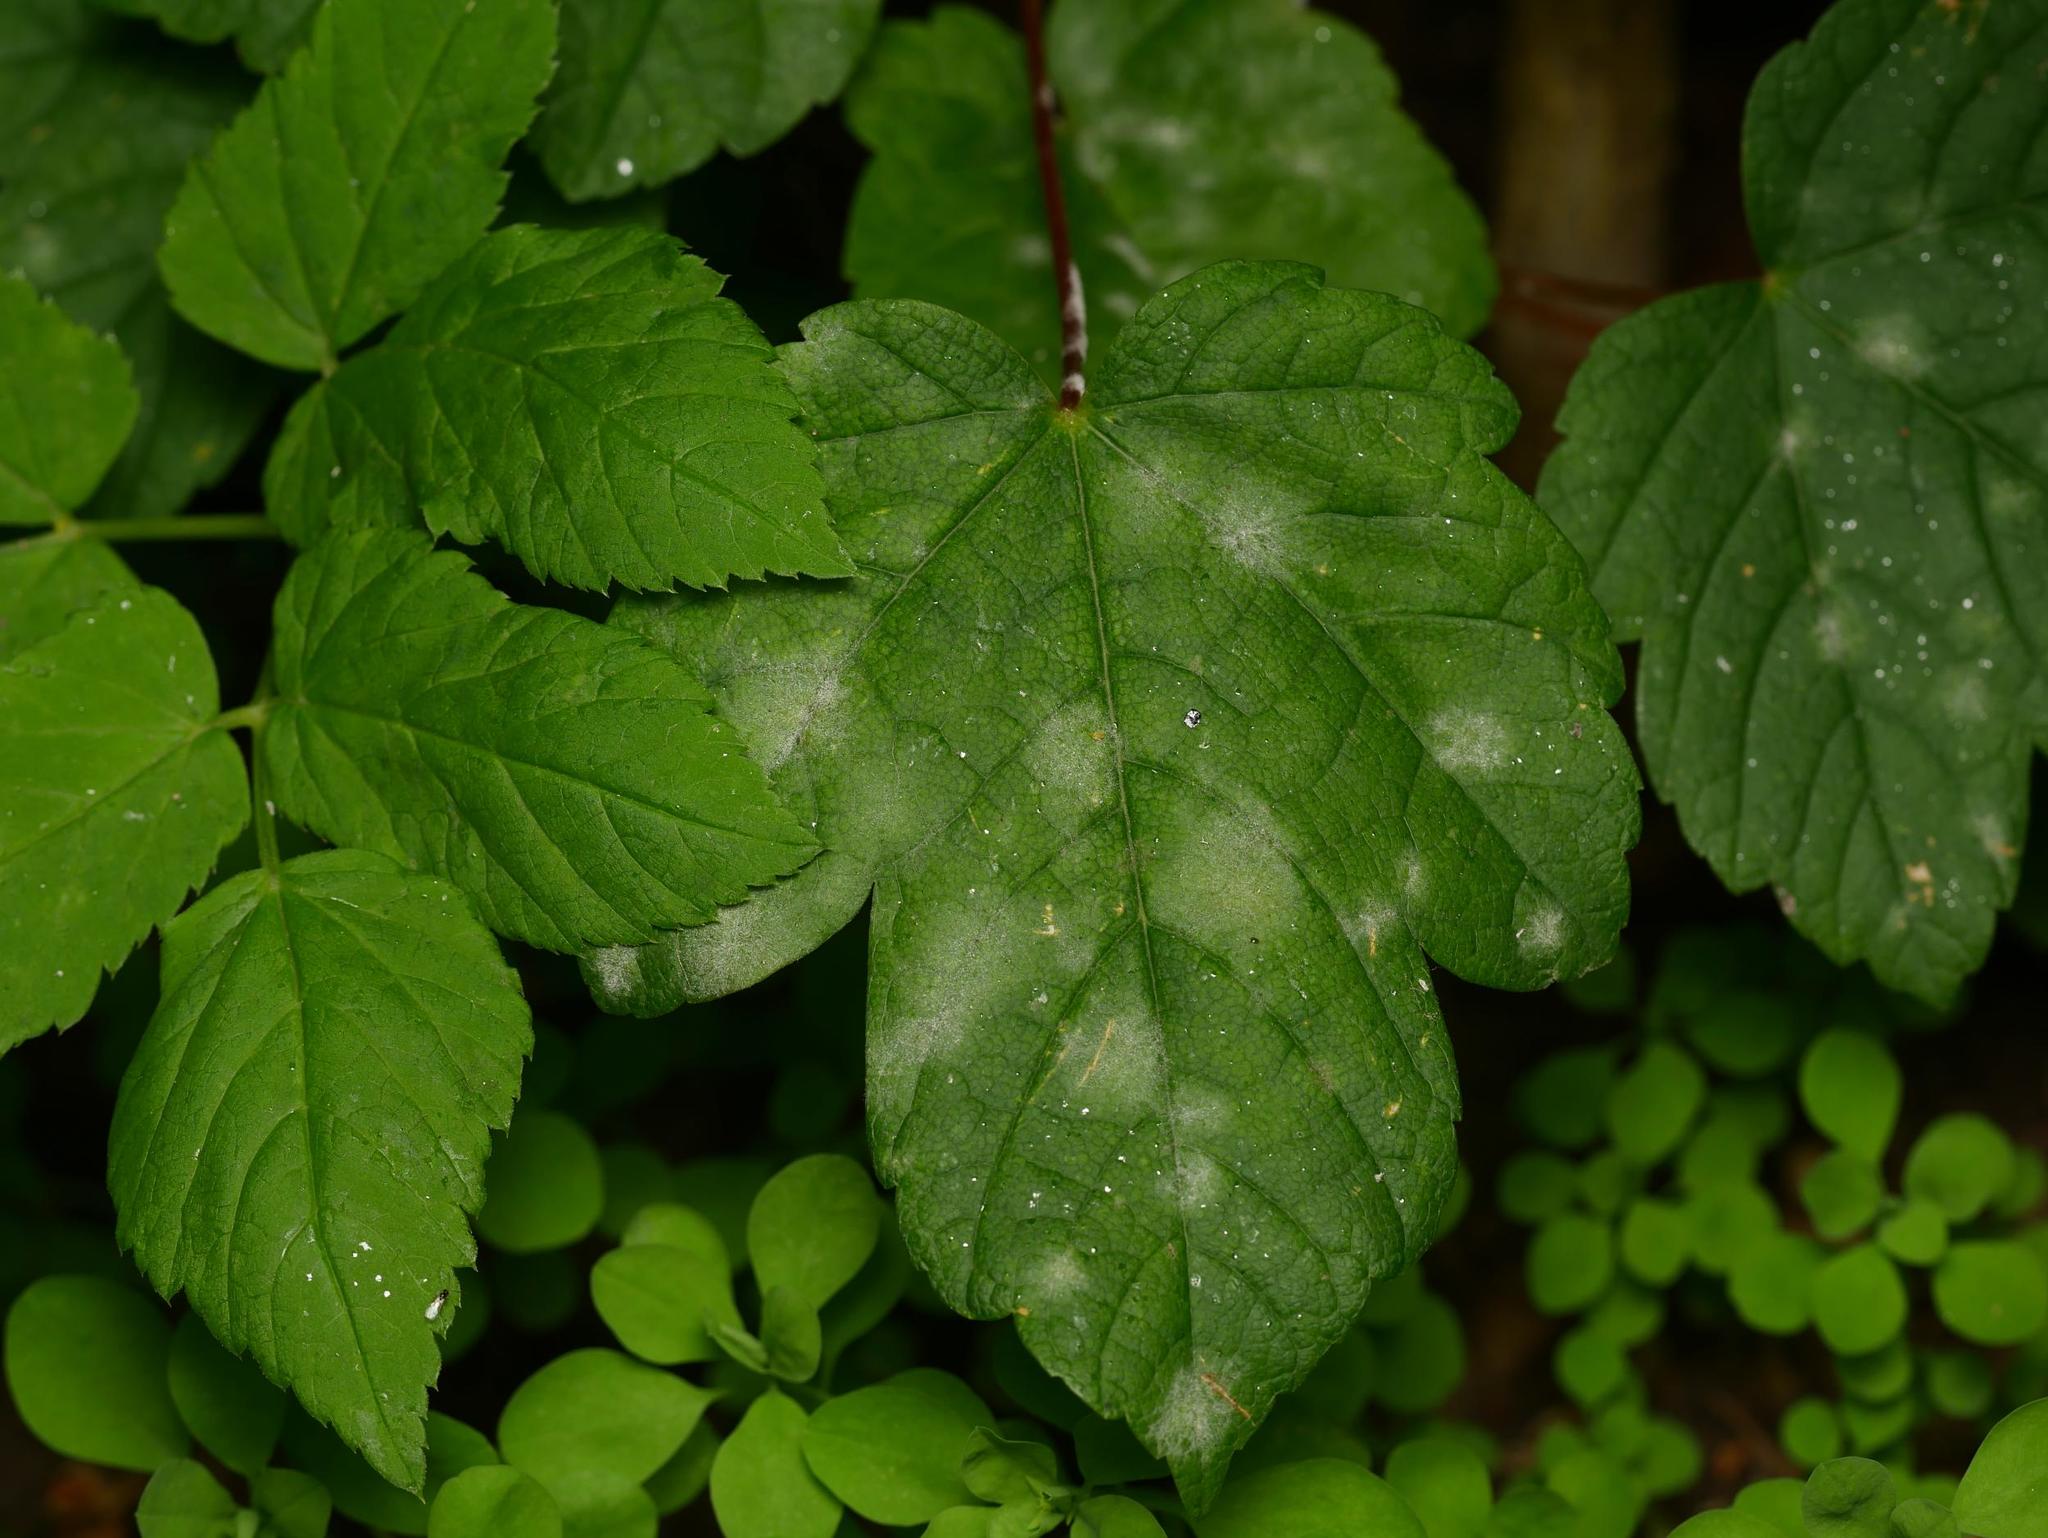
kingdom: Fungi
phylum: Ascomycota
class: Leotiomycetes
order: Helotiales
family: Erysiphaceae
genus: Sawadaea
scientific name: Sawadaea bicornis
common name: Maple mildew
